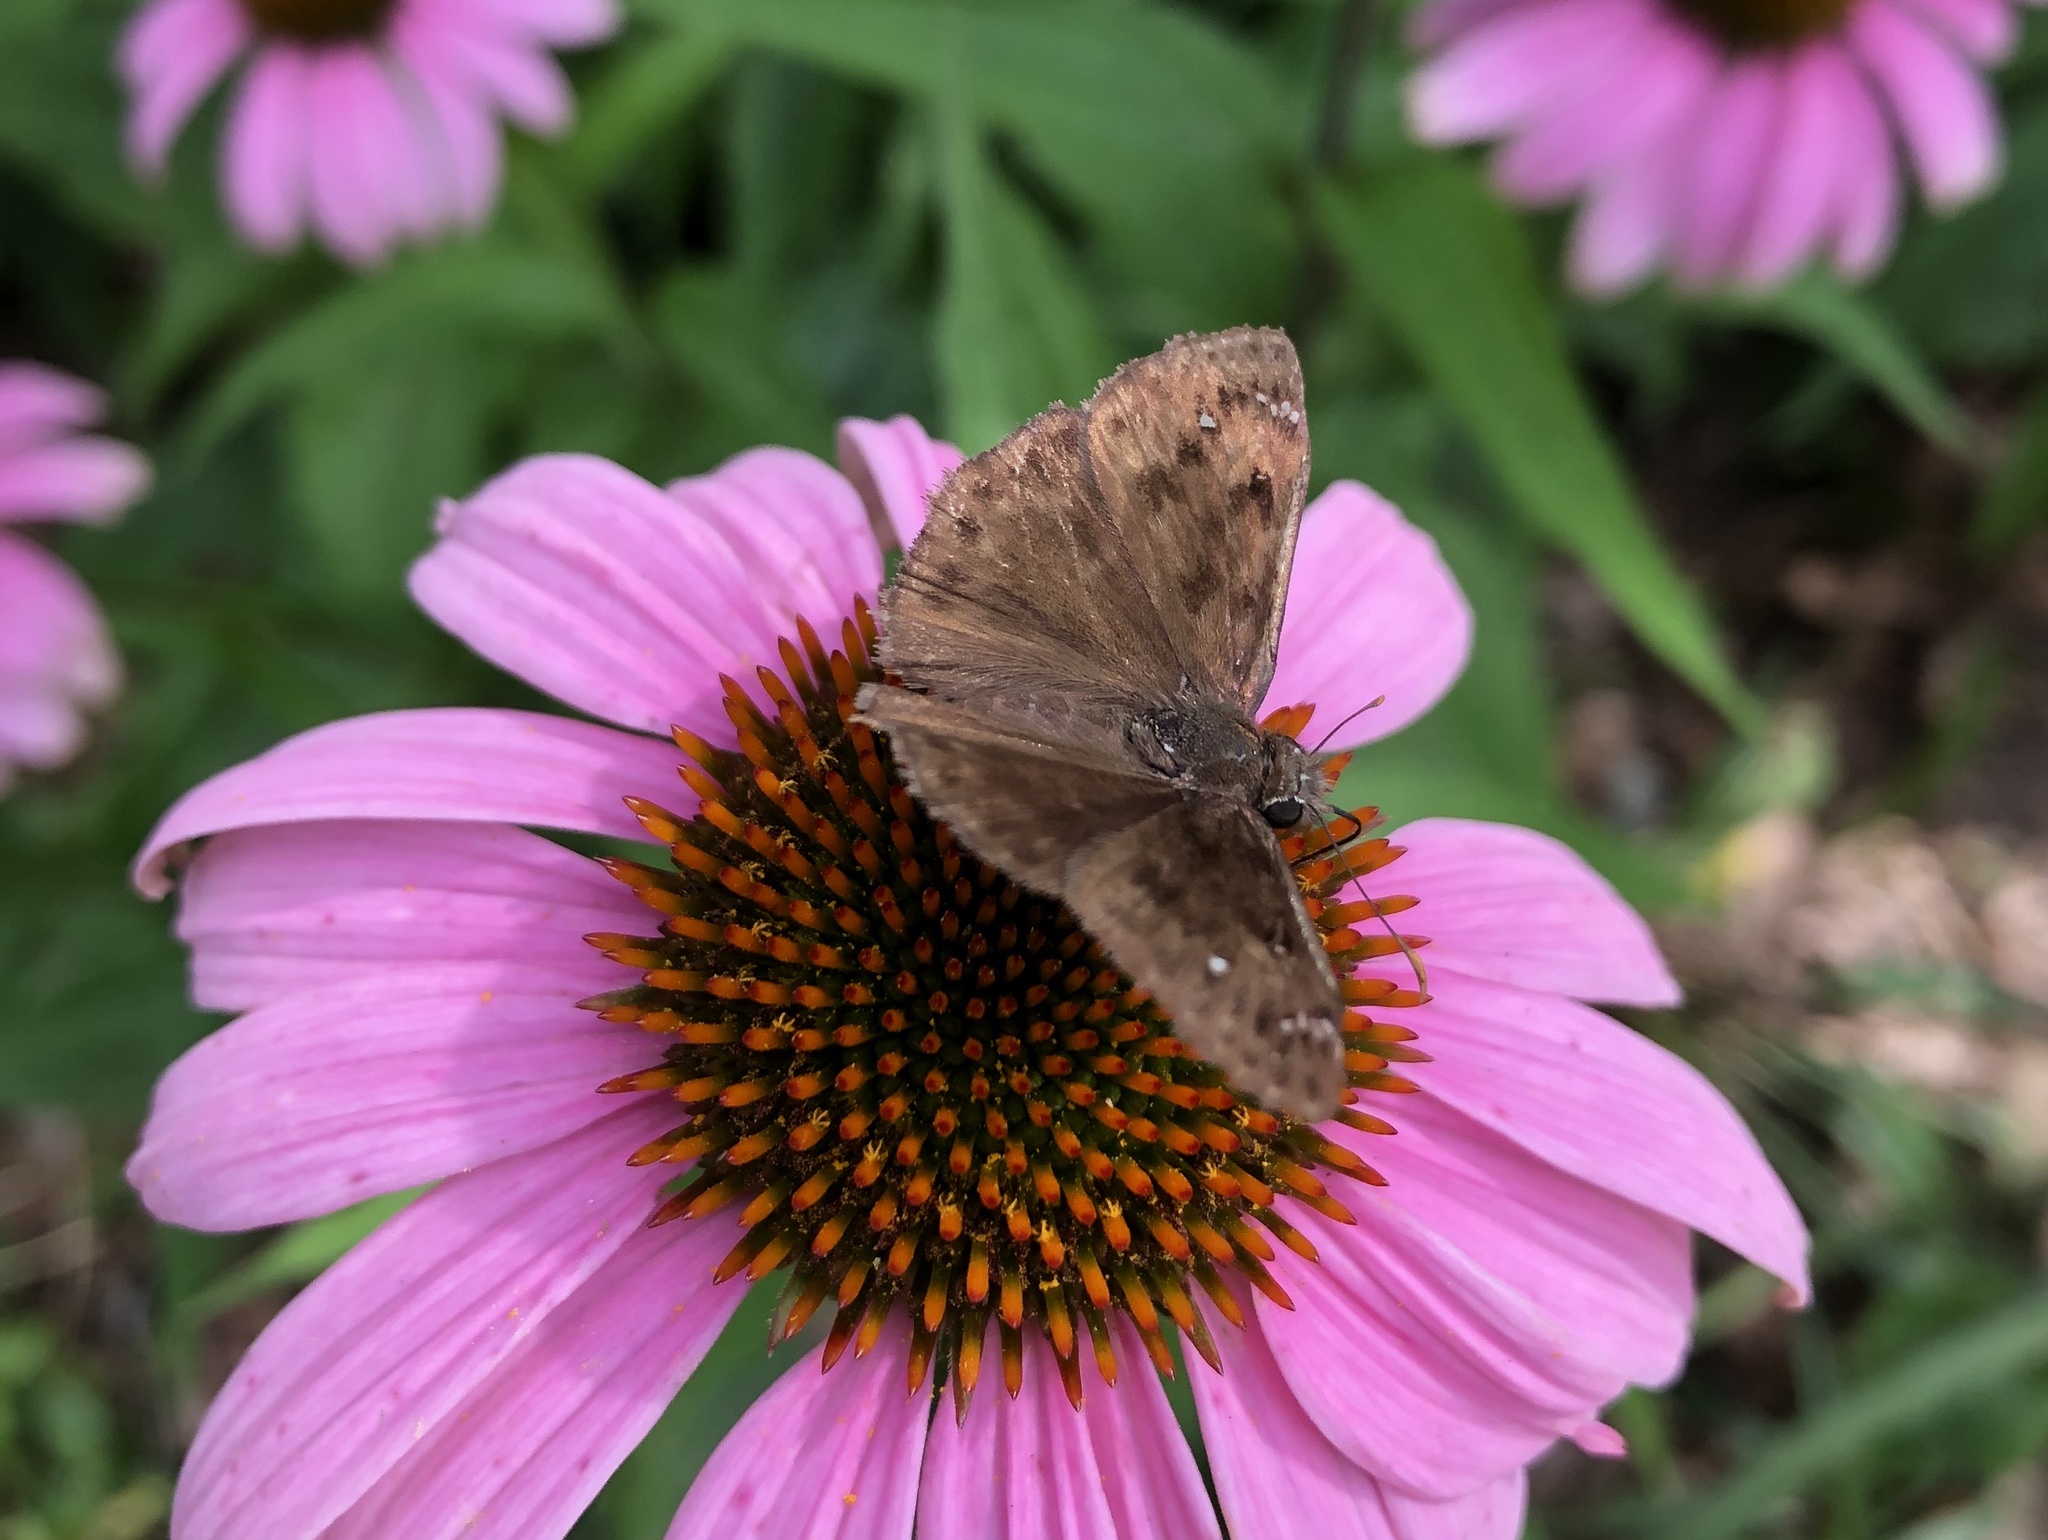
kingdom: Animalia
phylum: Arthropoda
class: Insecta
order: Lepidoptera
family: Hesperiidae
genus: Erynnis
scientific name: Erynnis horatius
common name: Horace's duskywing
